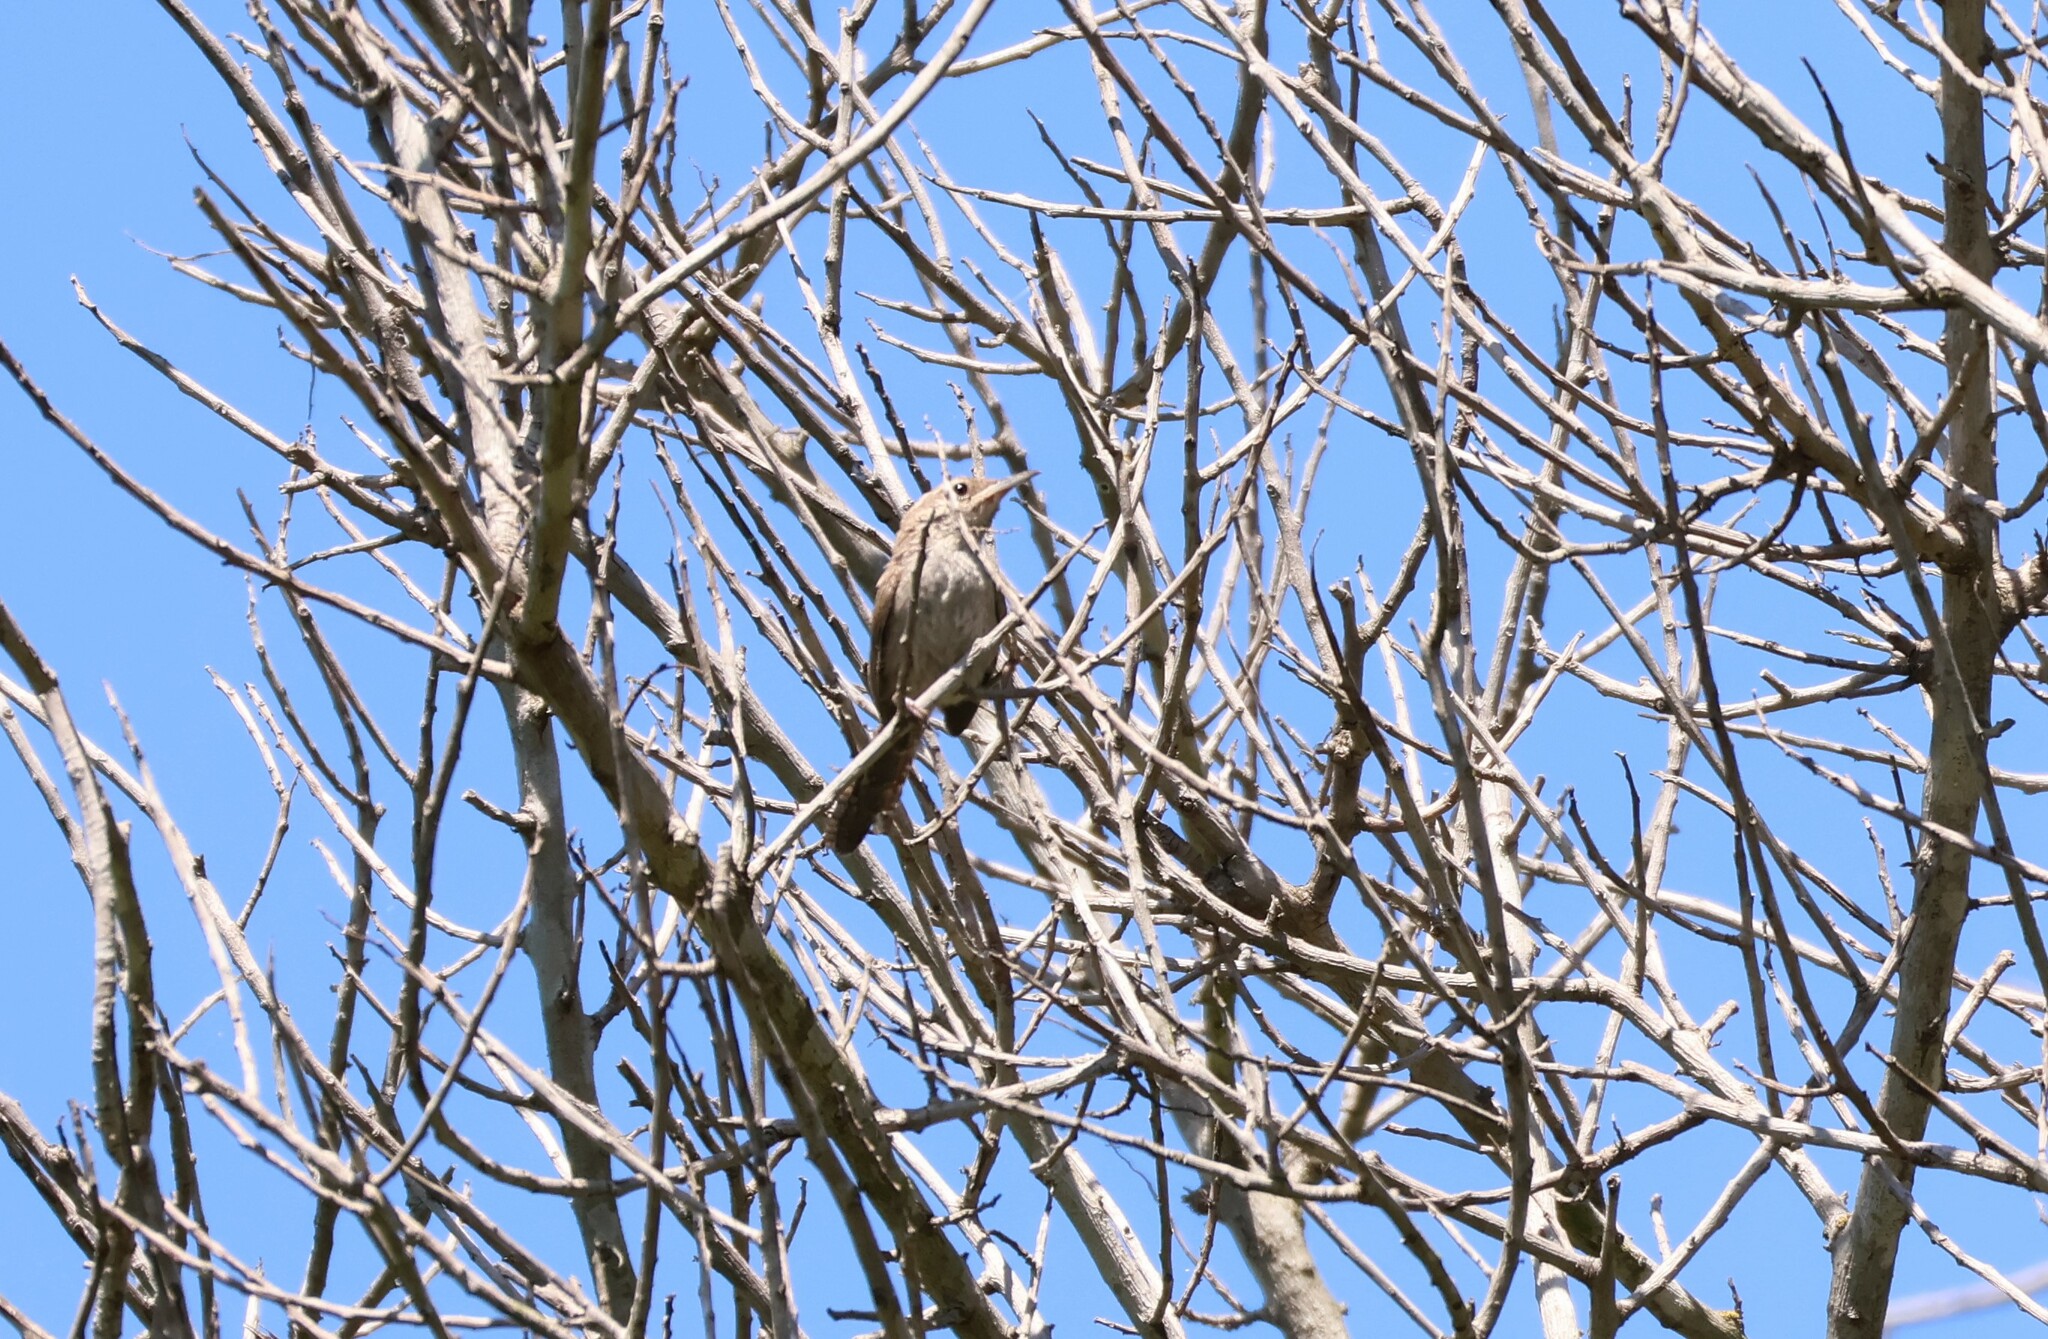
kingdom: Animalia
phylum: Chordata
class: Aves
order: Passeriformes
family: Troglodytidae
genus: Troglodytes
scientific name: Troglodytes aedon
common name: House wren
